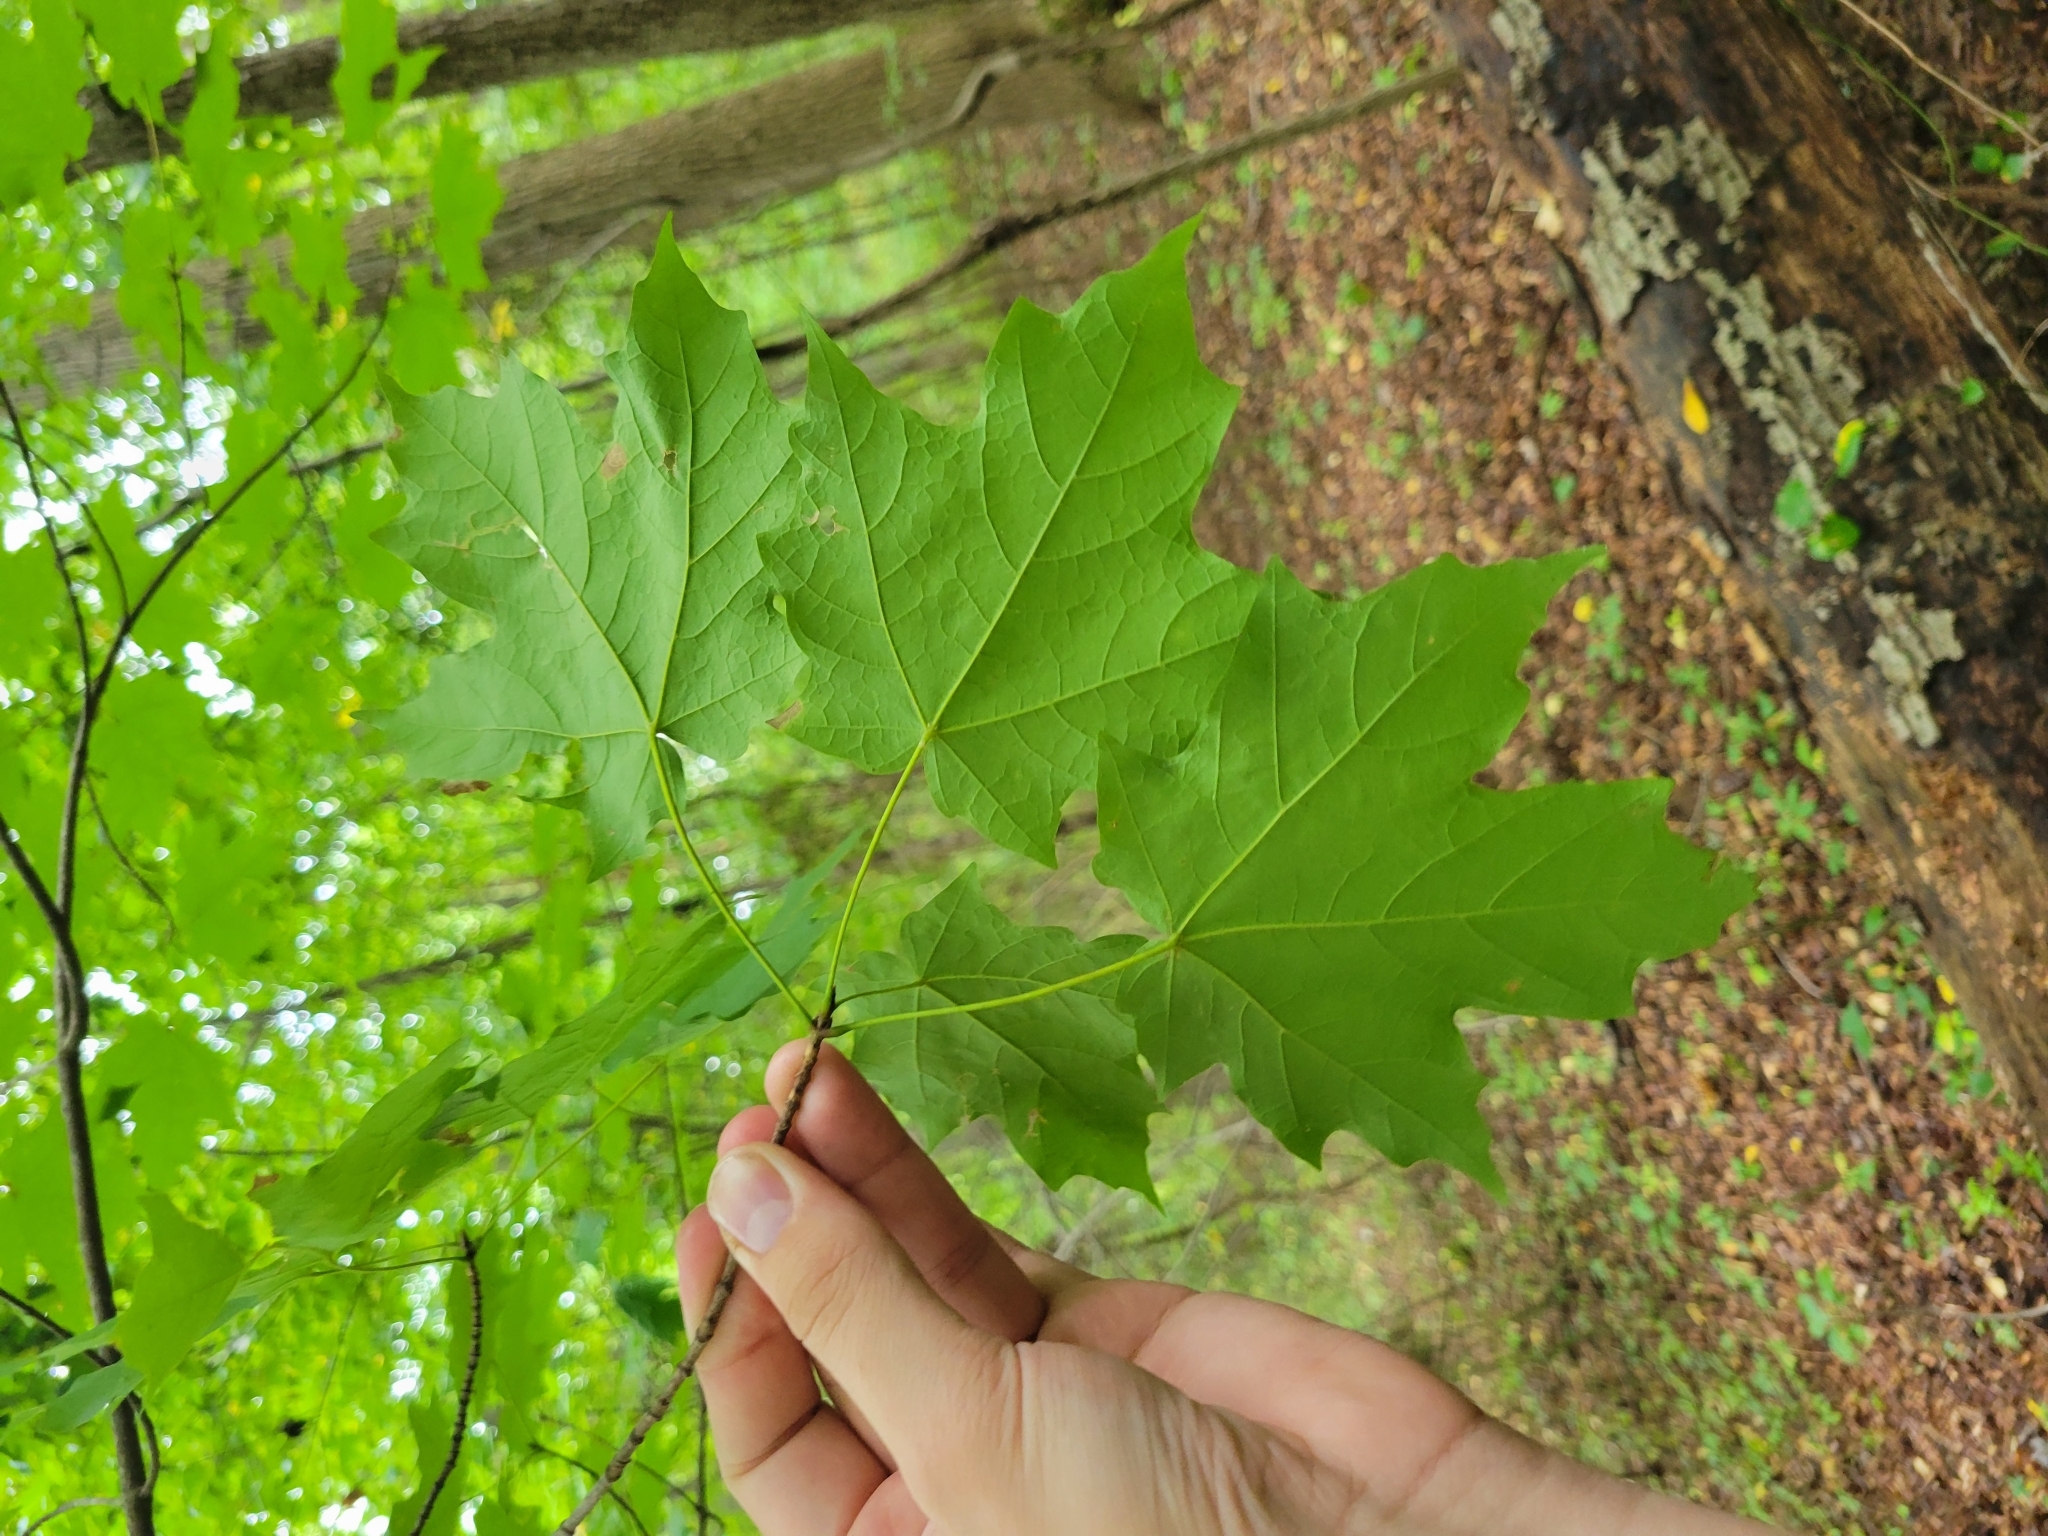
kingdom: Plantae
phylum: Tracheophyta
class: Magnoliopsida
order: Sapindales
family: Sapindaceae
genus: Acer
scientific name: Acer saccharum
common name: Sugar maple
